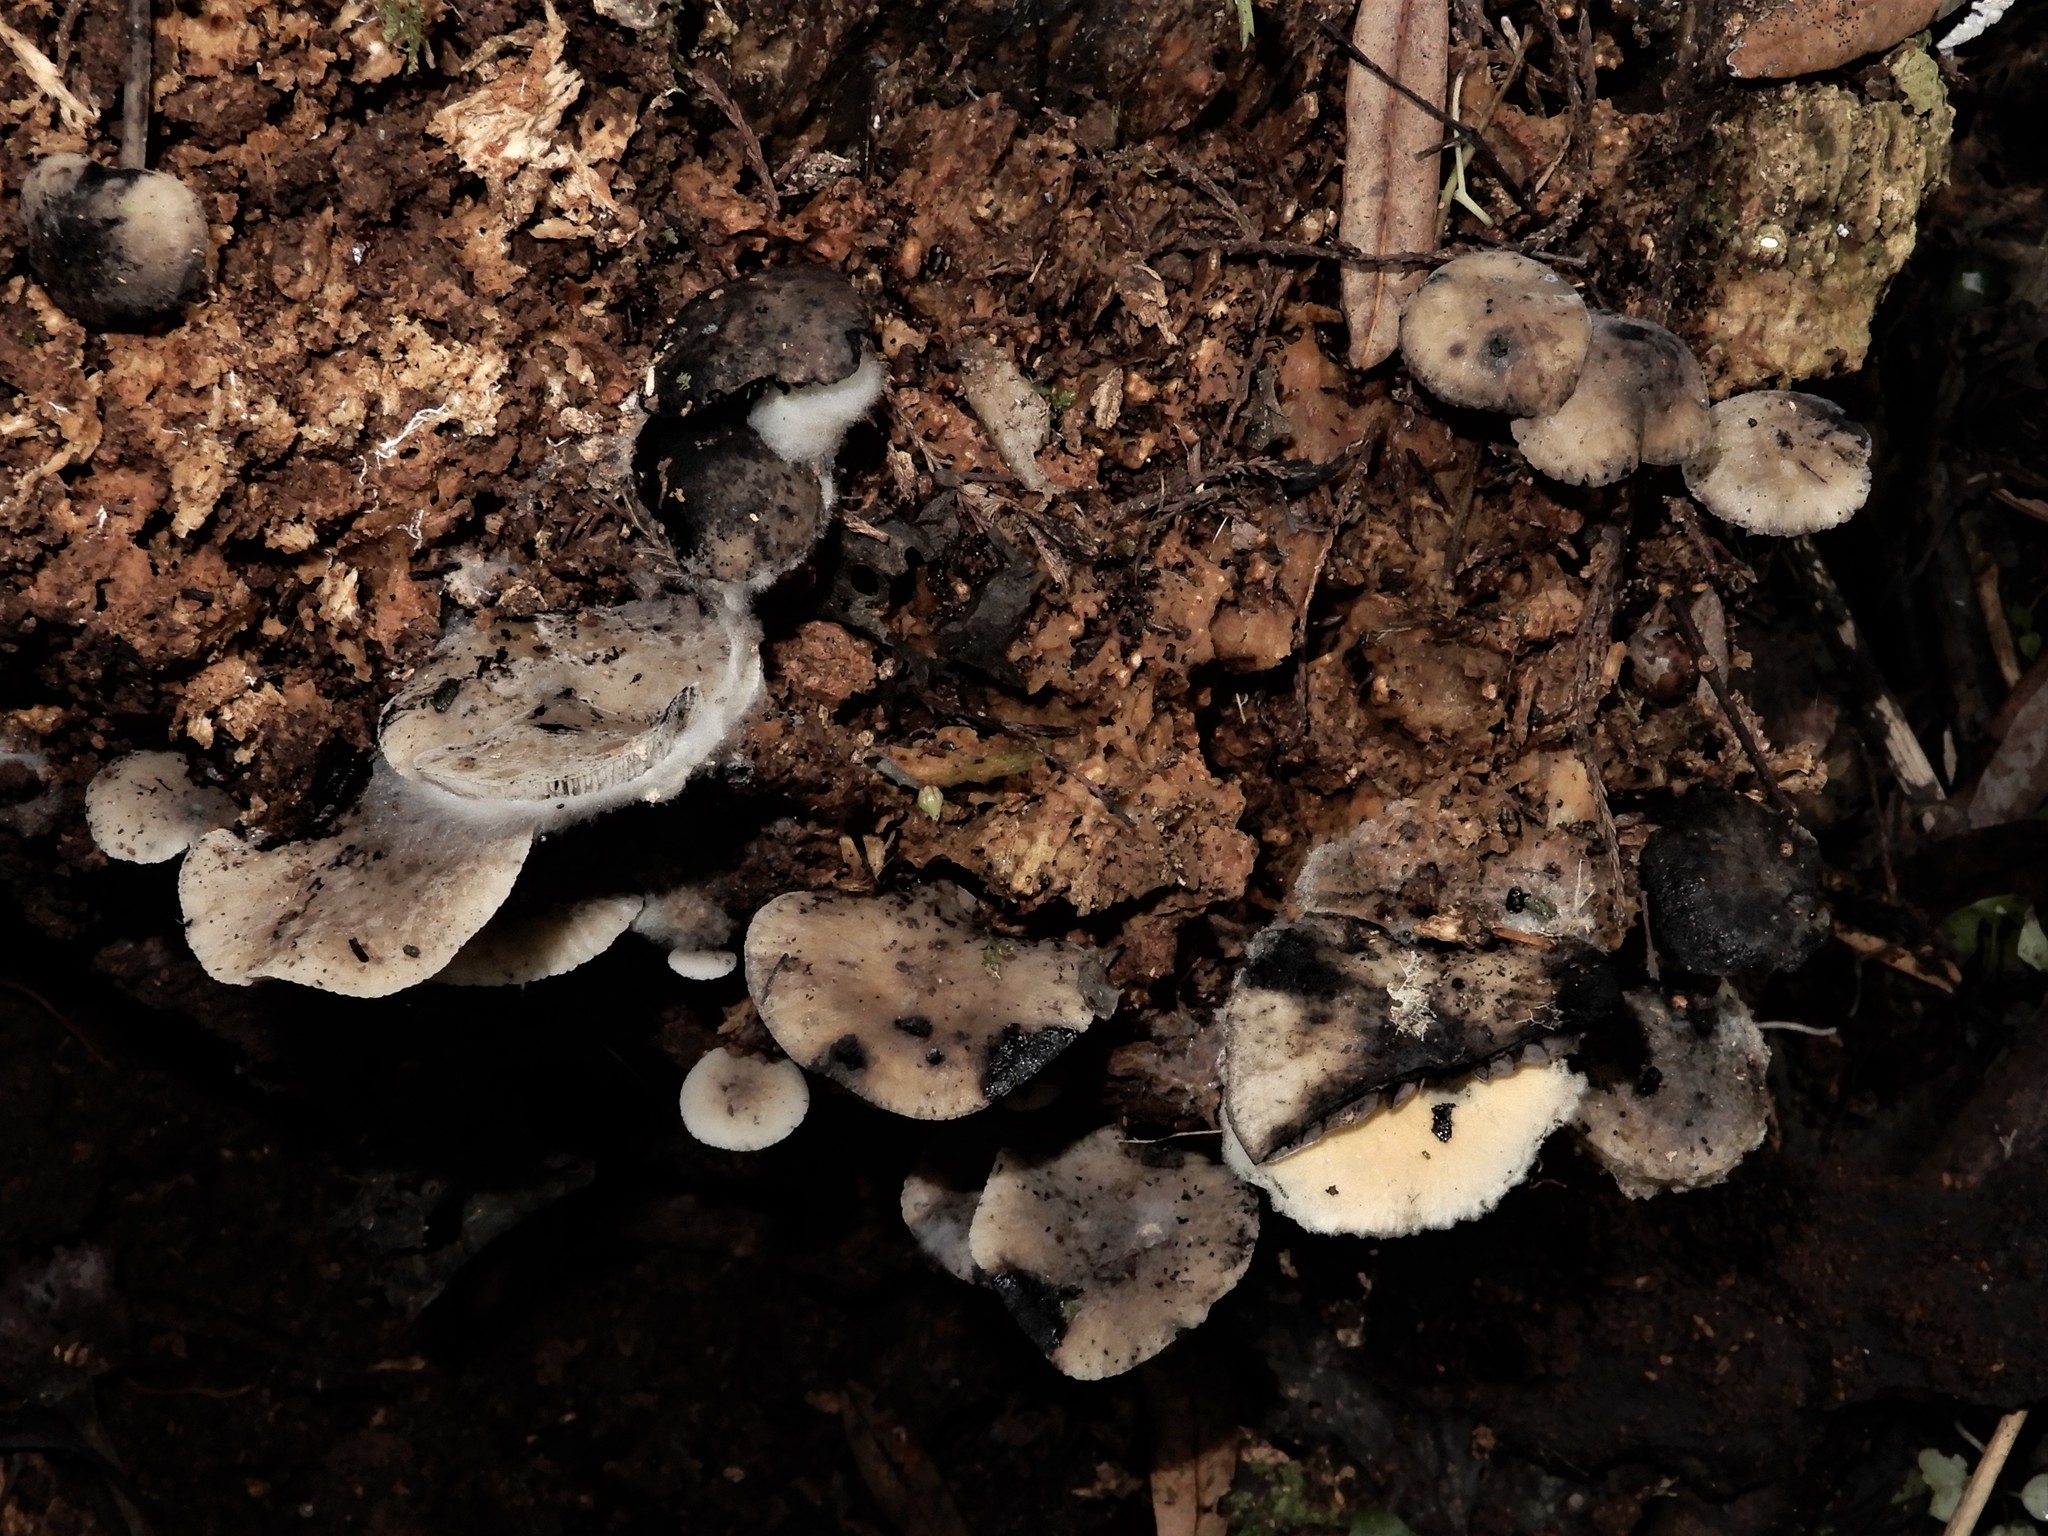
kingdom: Fungi
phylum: Basidiomycota
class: Agaricomycetes
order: Agaricales
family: Mycenaceae
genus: Hydropus
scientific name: Hydropus nigrita
